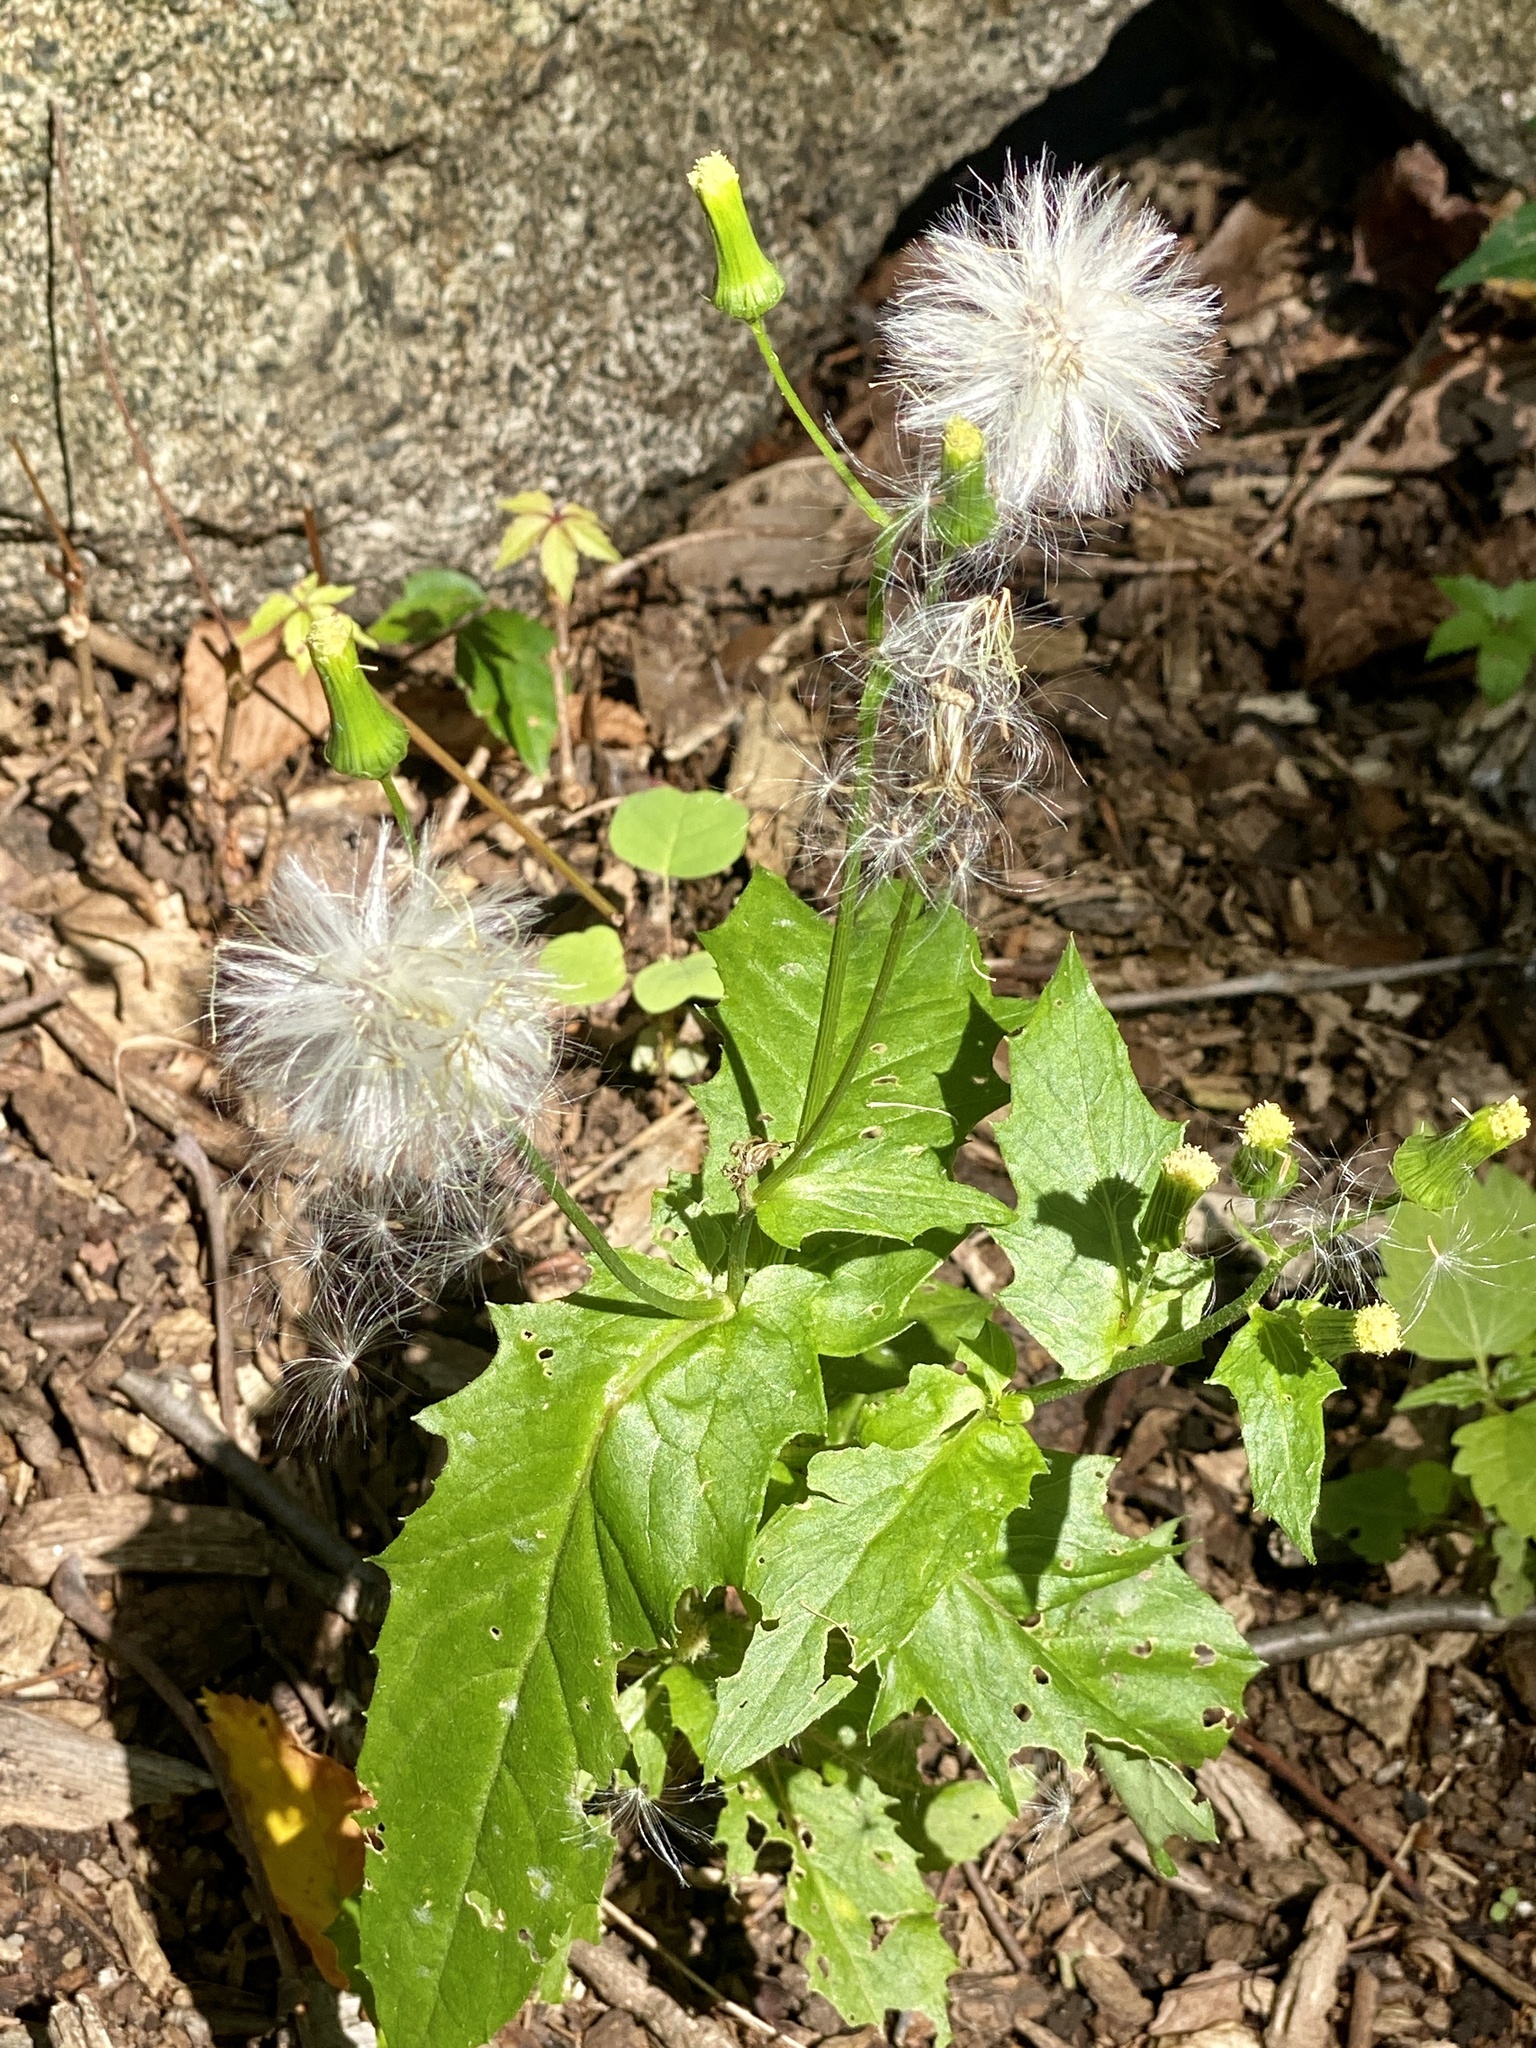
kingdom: Plantae
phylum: Tracheophyta
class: Magnoliopsida
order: Asterales
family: Asteraceae
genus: Erechtites
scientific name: Erechtites hieraciifolius
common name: American burnweed
